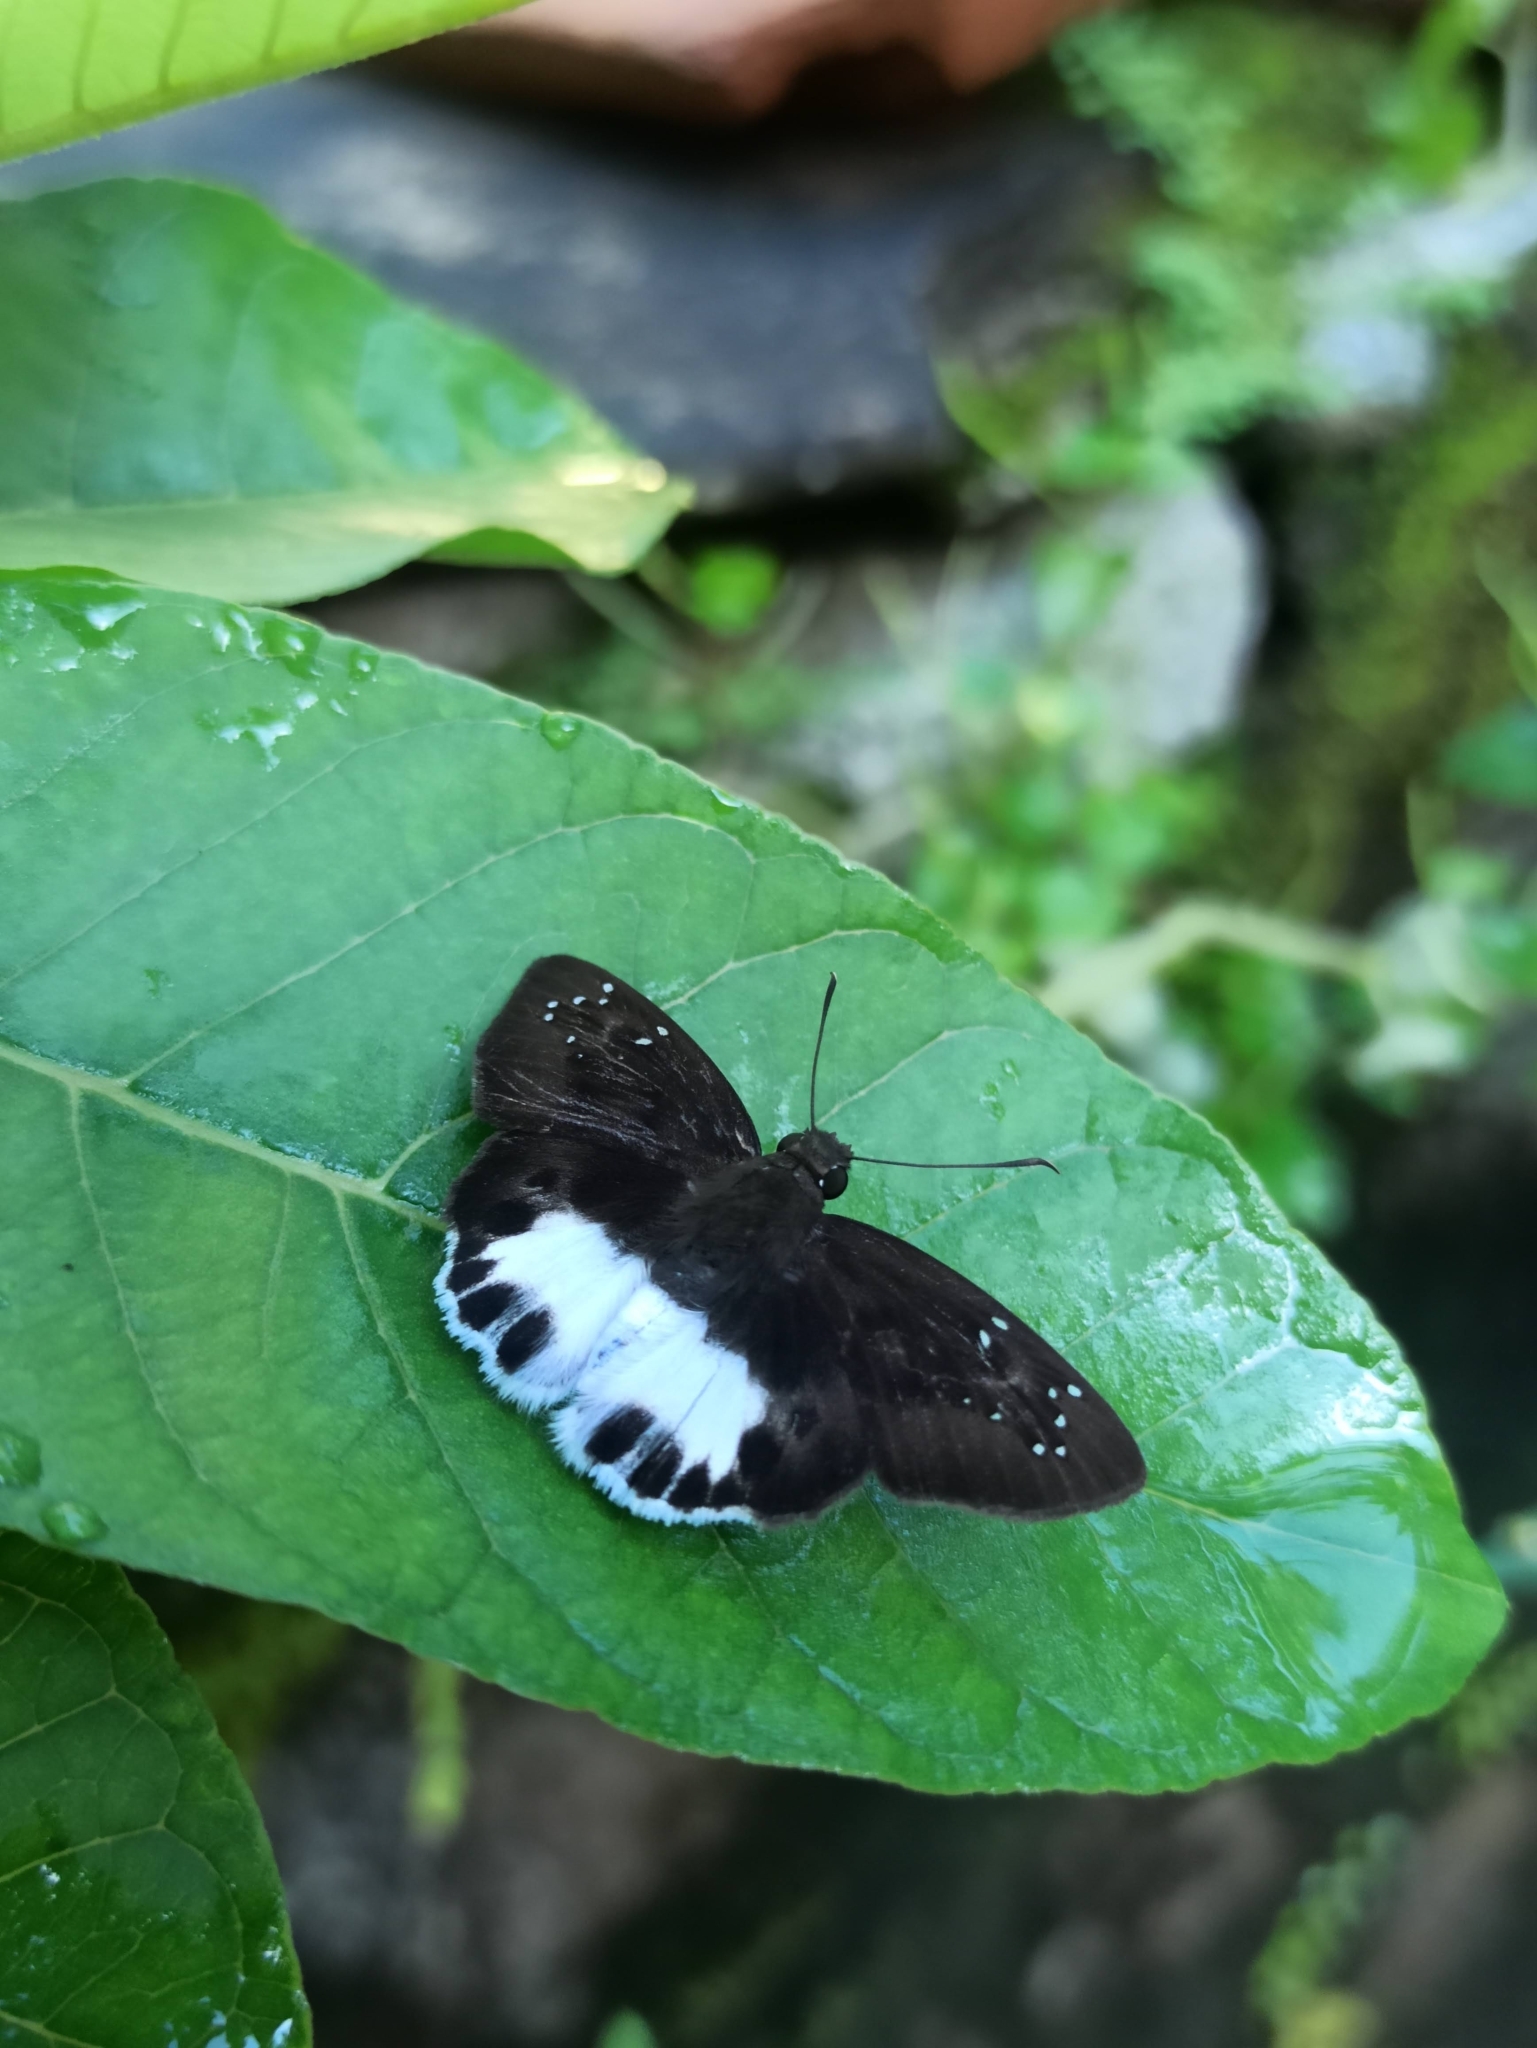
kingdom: Animalia
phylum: Arthropoda
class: Insecta
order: Lepidoptera
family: Hesperiidae
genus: Tagiades
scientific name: Tagiades litigiosa
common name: Water snow flat
